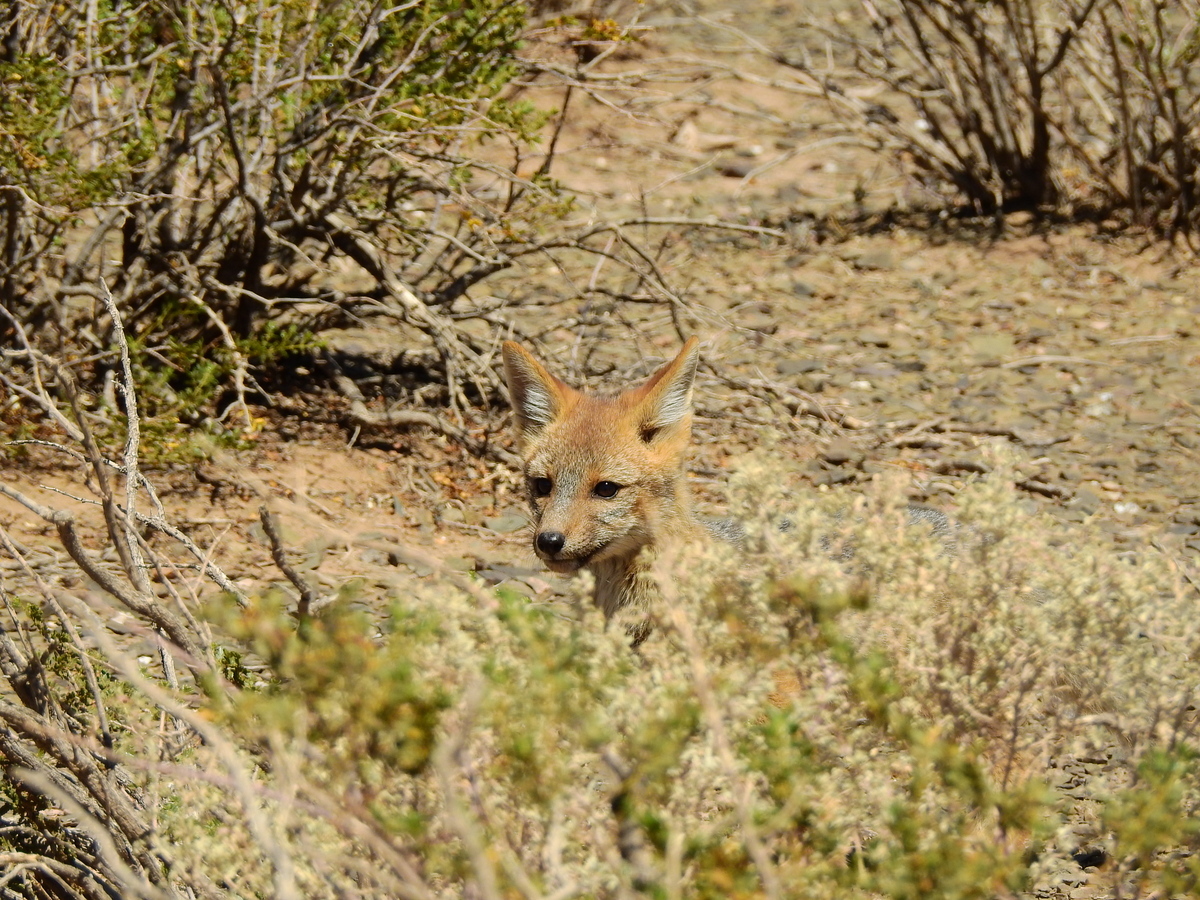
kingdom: Animalia
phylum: Chordata
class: Mammalia
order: Carnivora
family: Canidae
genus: Lycalopex
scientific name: Lycalopex culpaeus
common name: Culpeo
